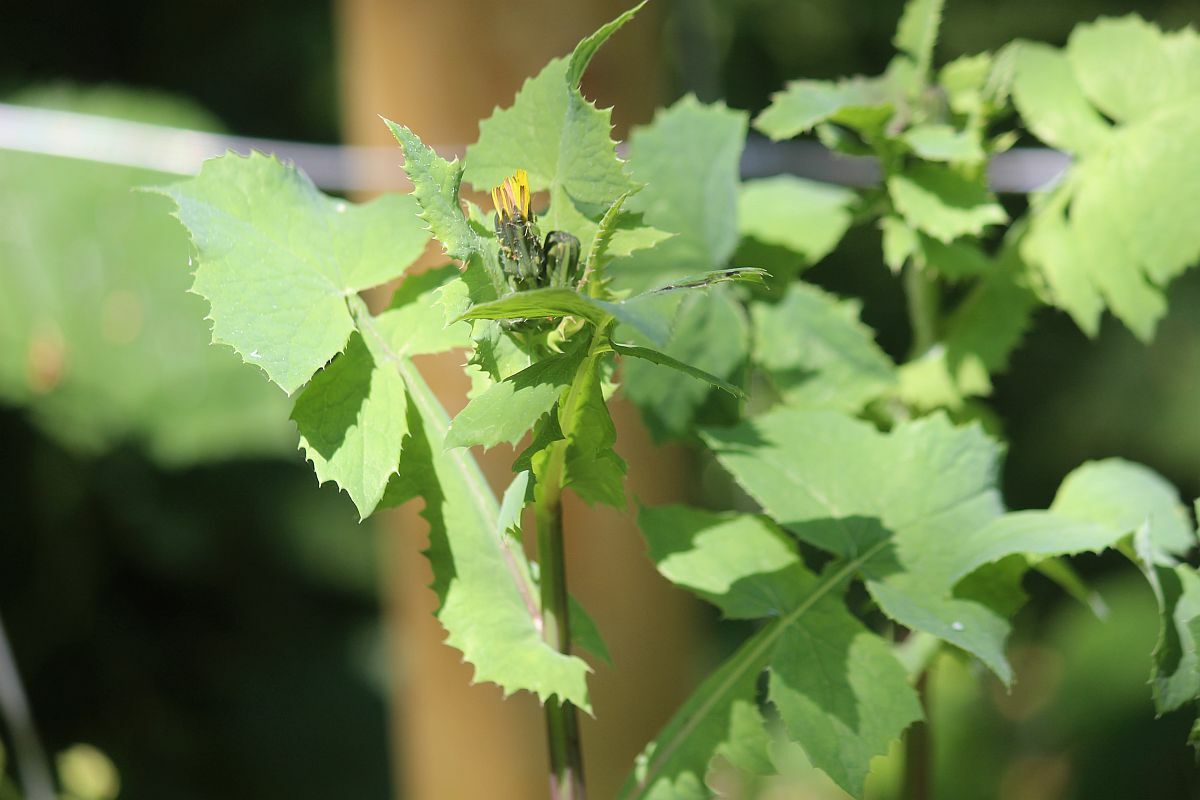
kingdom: Plantae
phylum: Tracheophyta
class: Magnoliopsida
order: Asterales
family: Asteraceae
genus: Sonchus
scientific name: Sonchus oleraceus
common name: Common sowthistle
